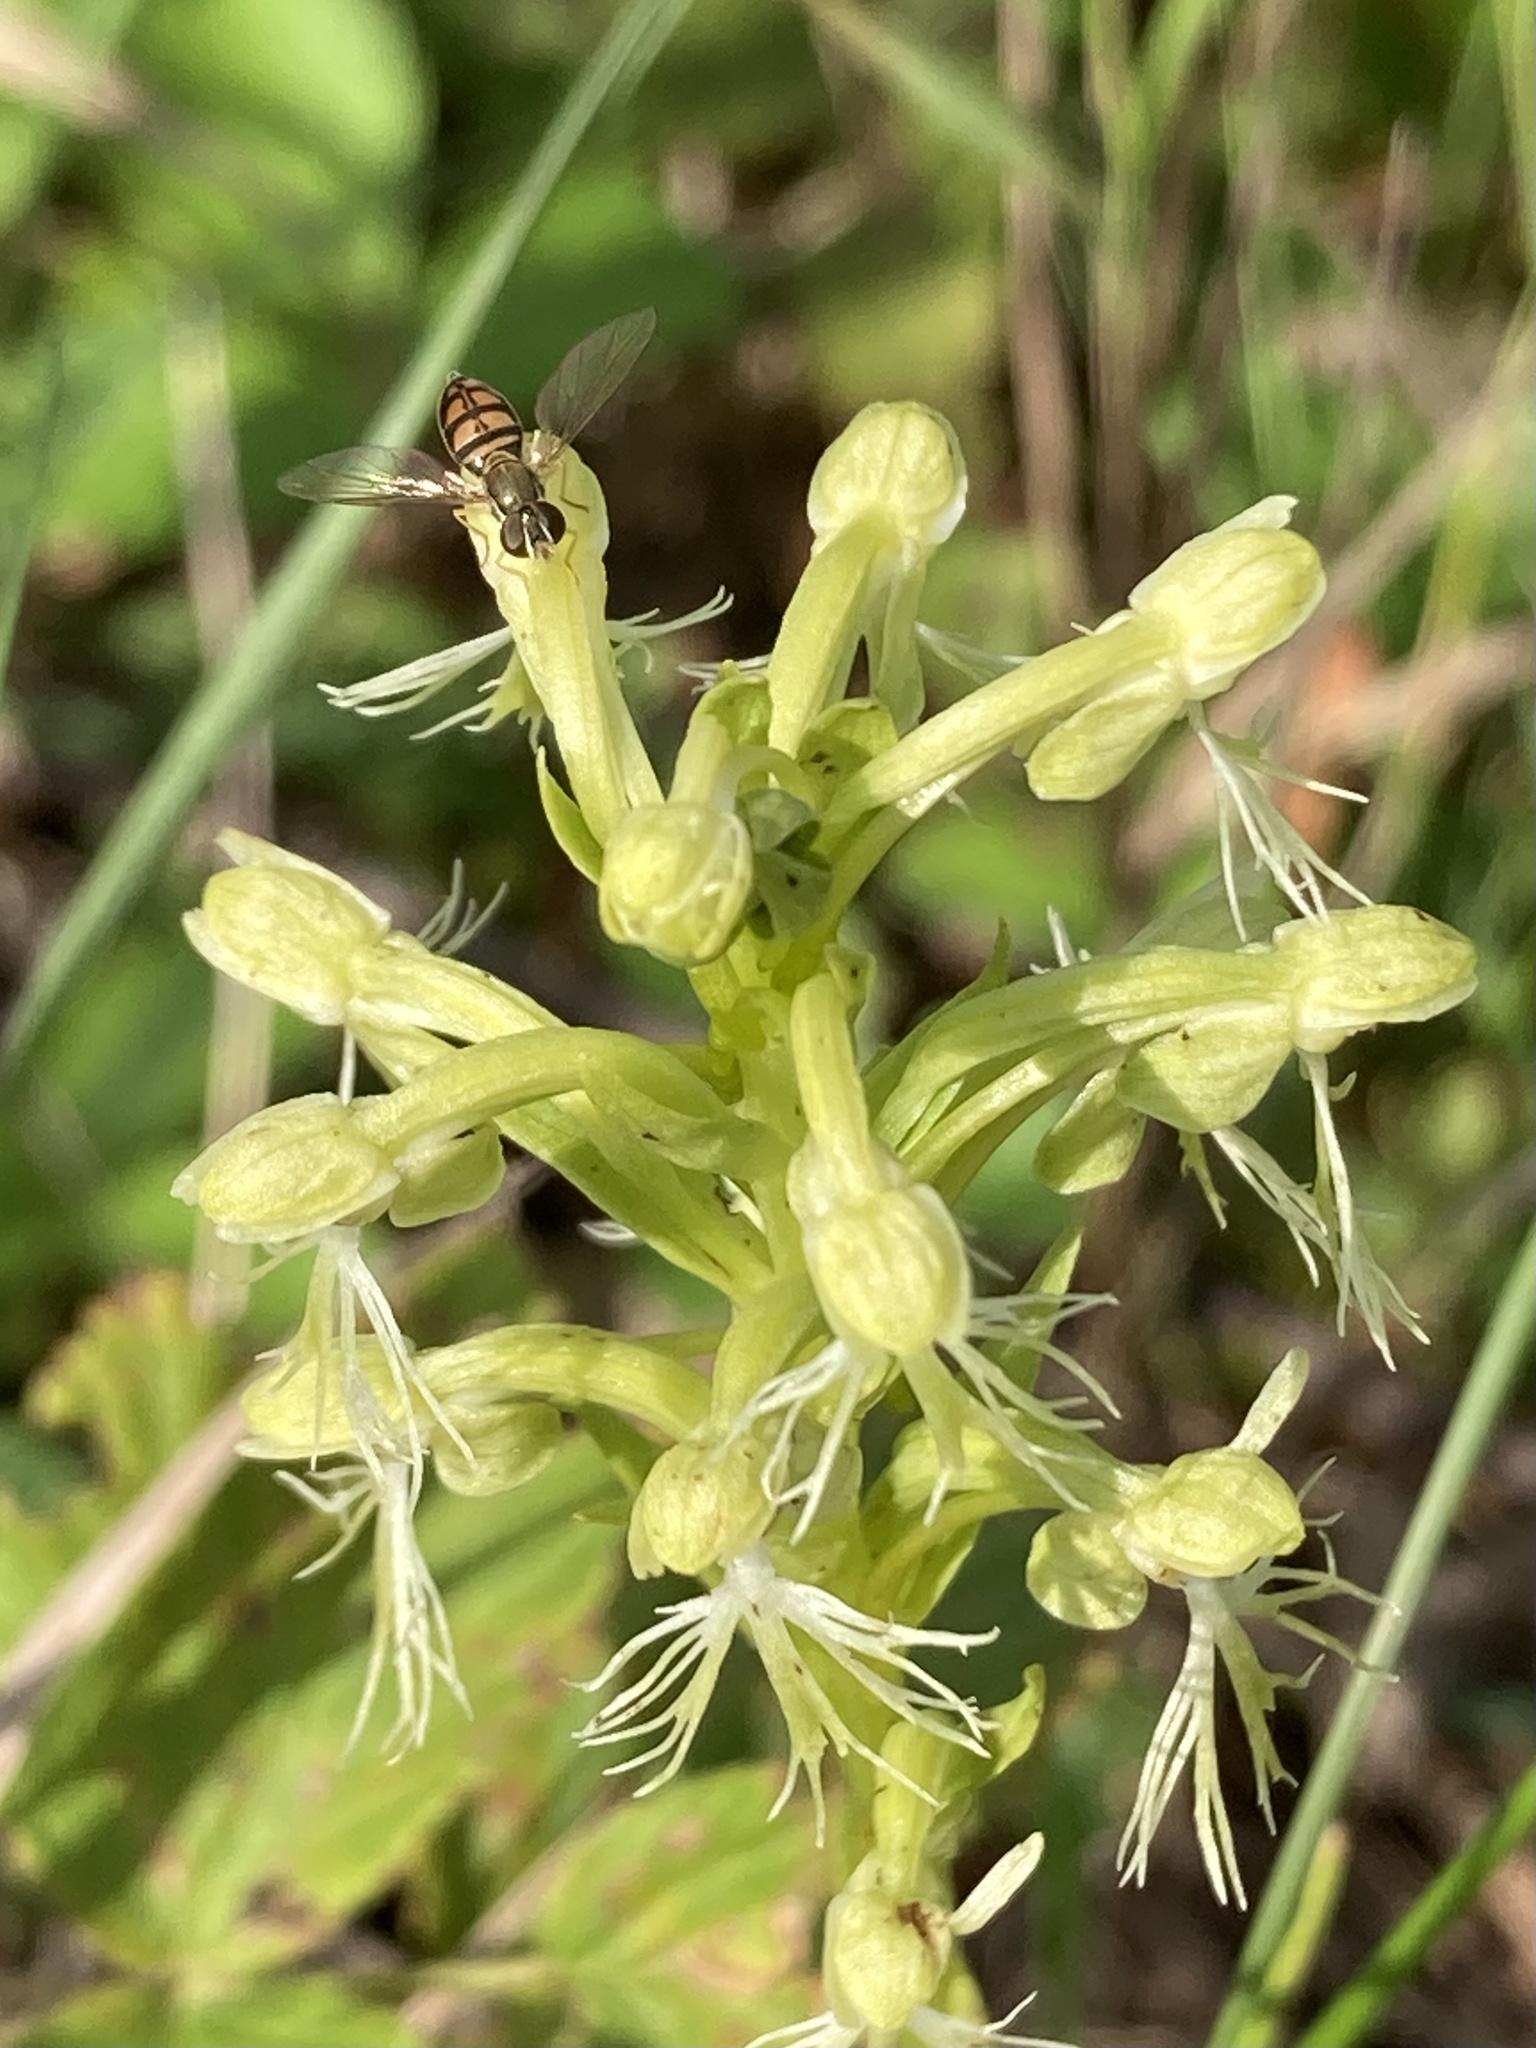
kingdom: Animalia
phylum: Arthropoda
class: Insecta
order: Diptera
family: Syrphidae
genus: Toxomerus
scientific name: Toxomerus marginatus
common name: Syrphid fly
